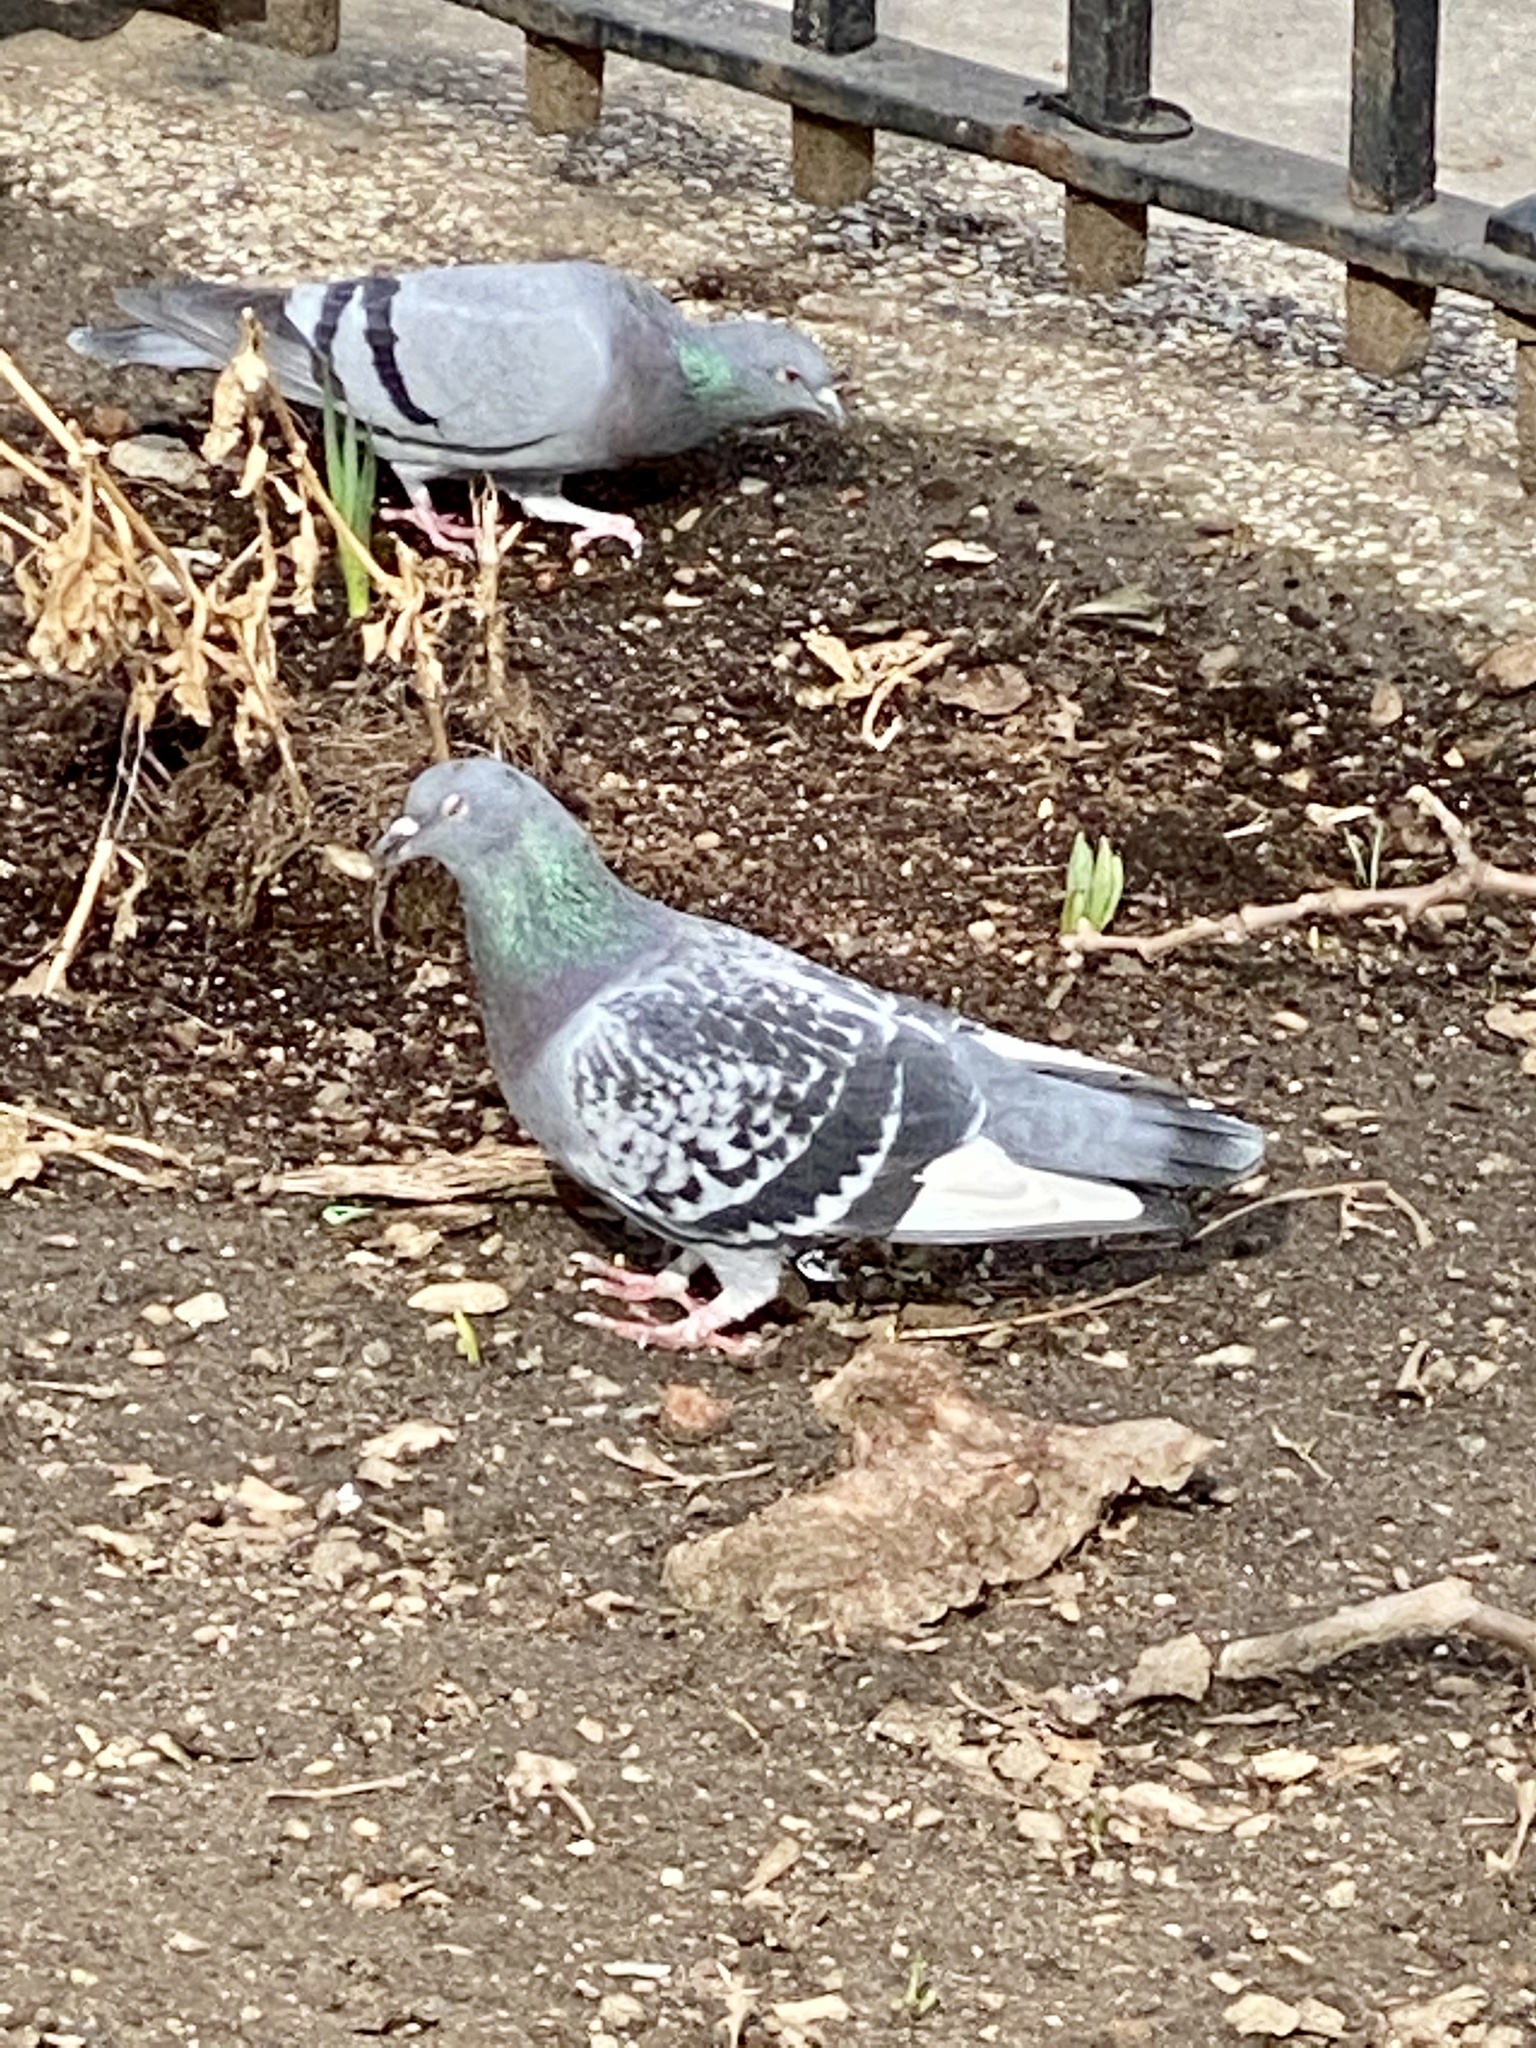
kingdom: Animalia
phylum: Chordata
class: Aves
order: Columbiformes
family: Columbidae
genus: Columba
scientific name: Columba livia
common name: Rock pigeon
